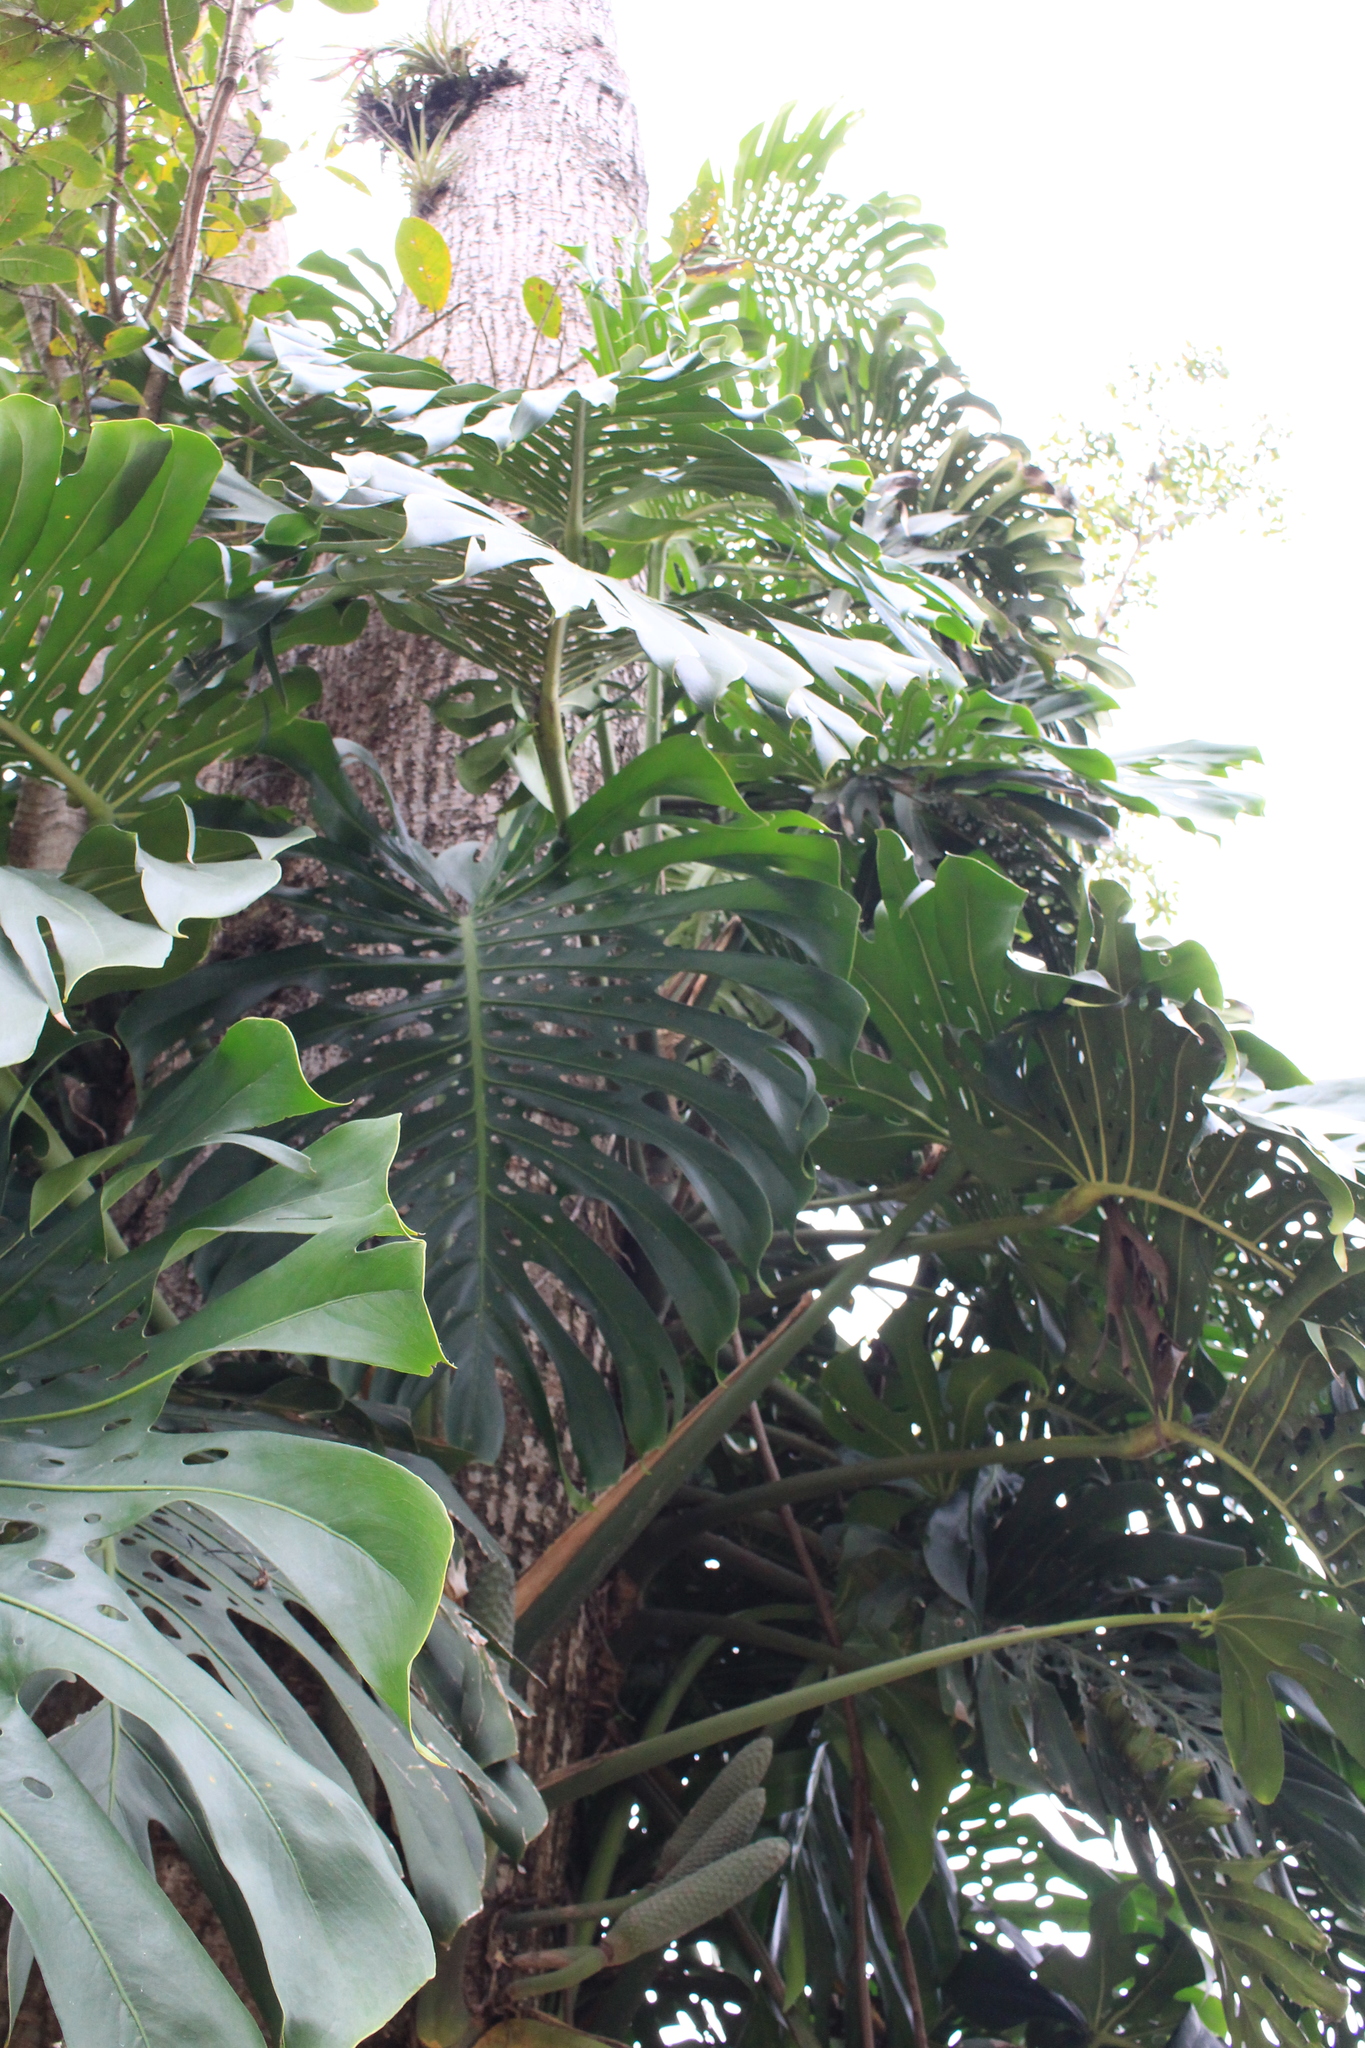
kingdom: Plantae
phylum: Tracheophyta
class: Liliopsida
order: Alismatales
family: Araceae
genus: Monstera
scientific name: Monstera deliciosa
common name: Cut-leaf-philodendron
